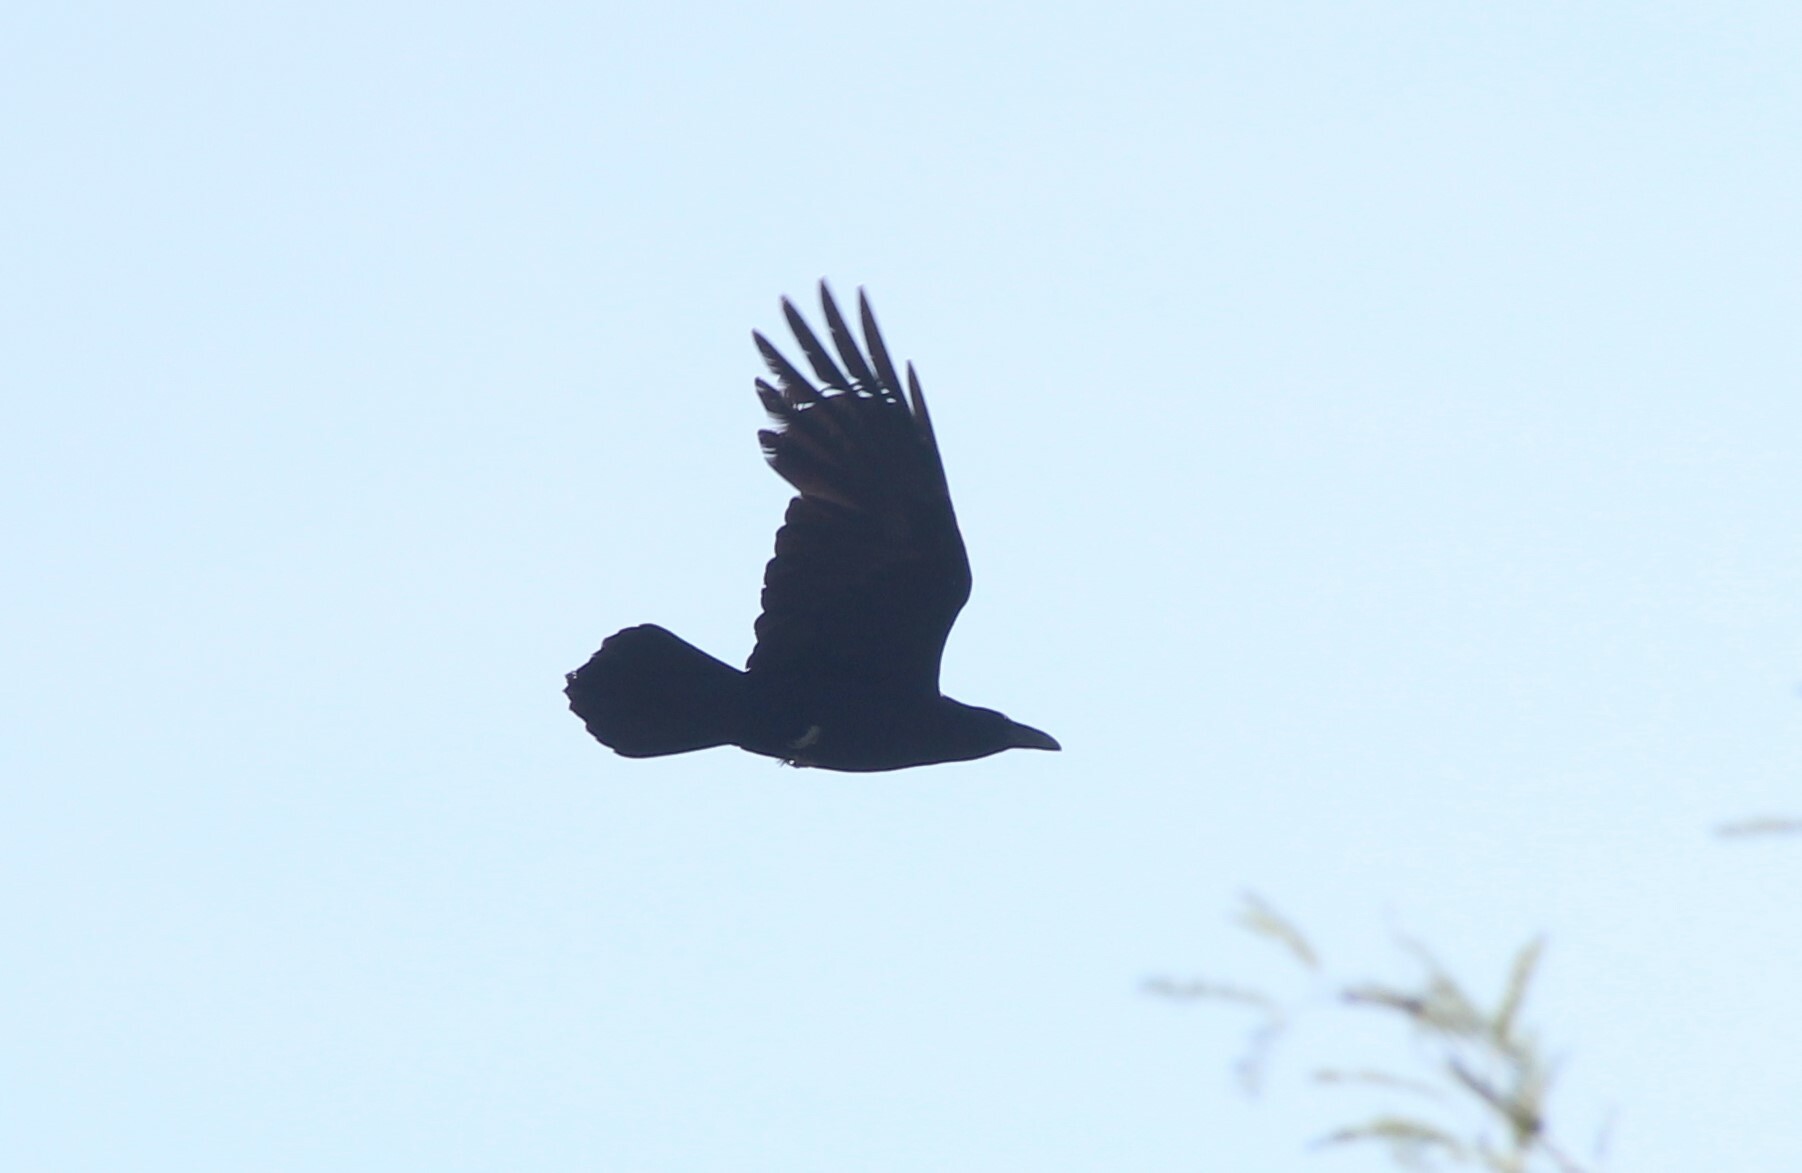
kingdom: Animalia
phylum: Chordata
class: Aves
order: Passeriformes
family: Corvidae
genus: Corvus
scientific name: Corvus corax
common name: Common raven
